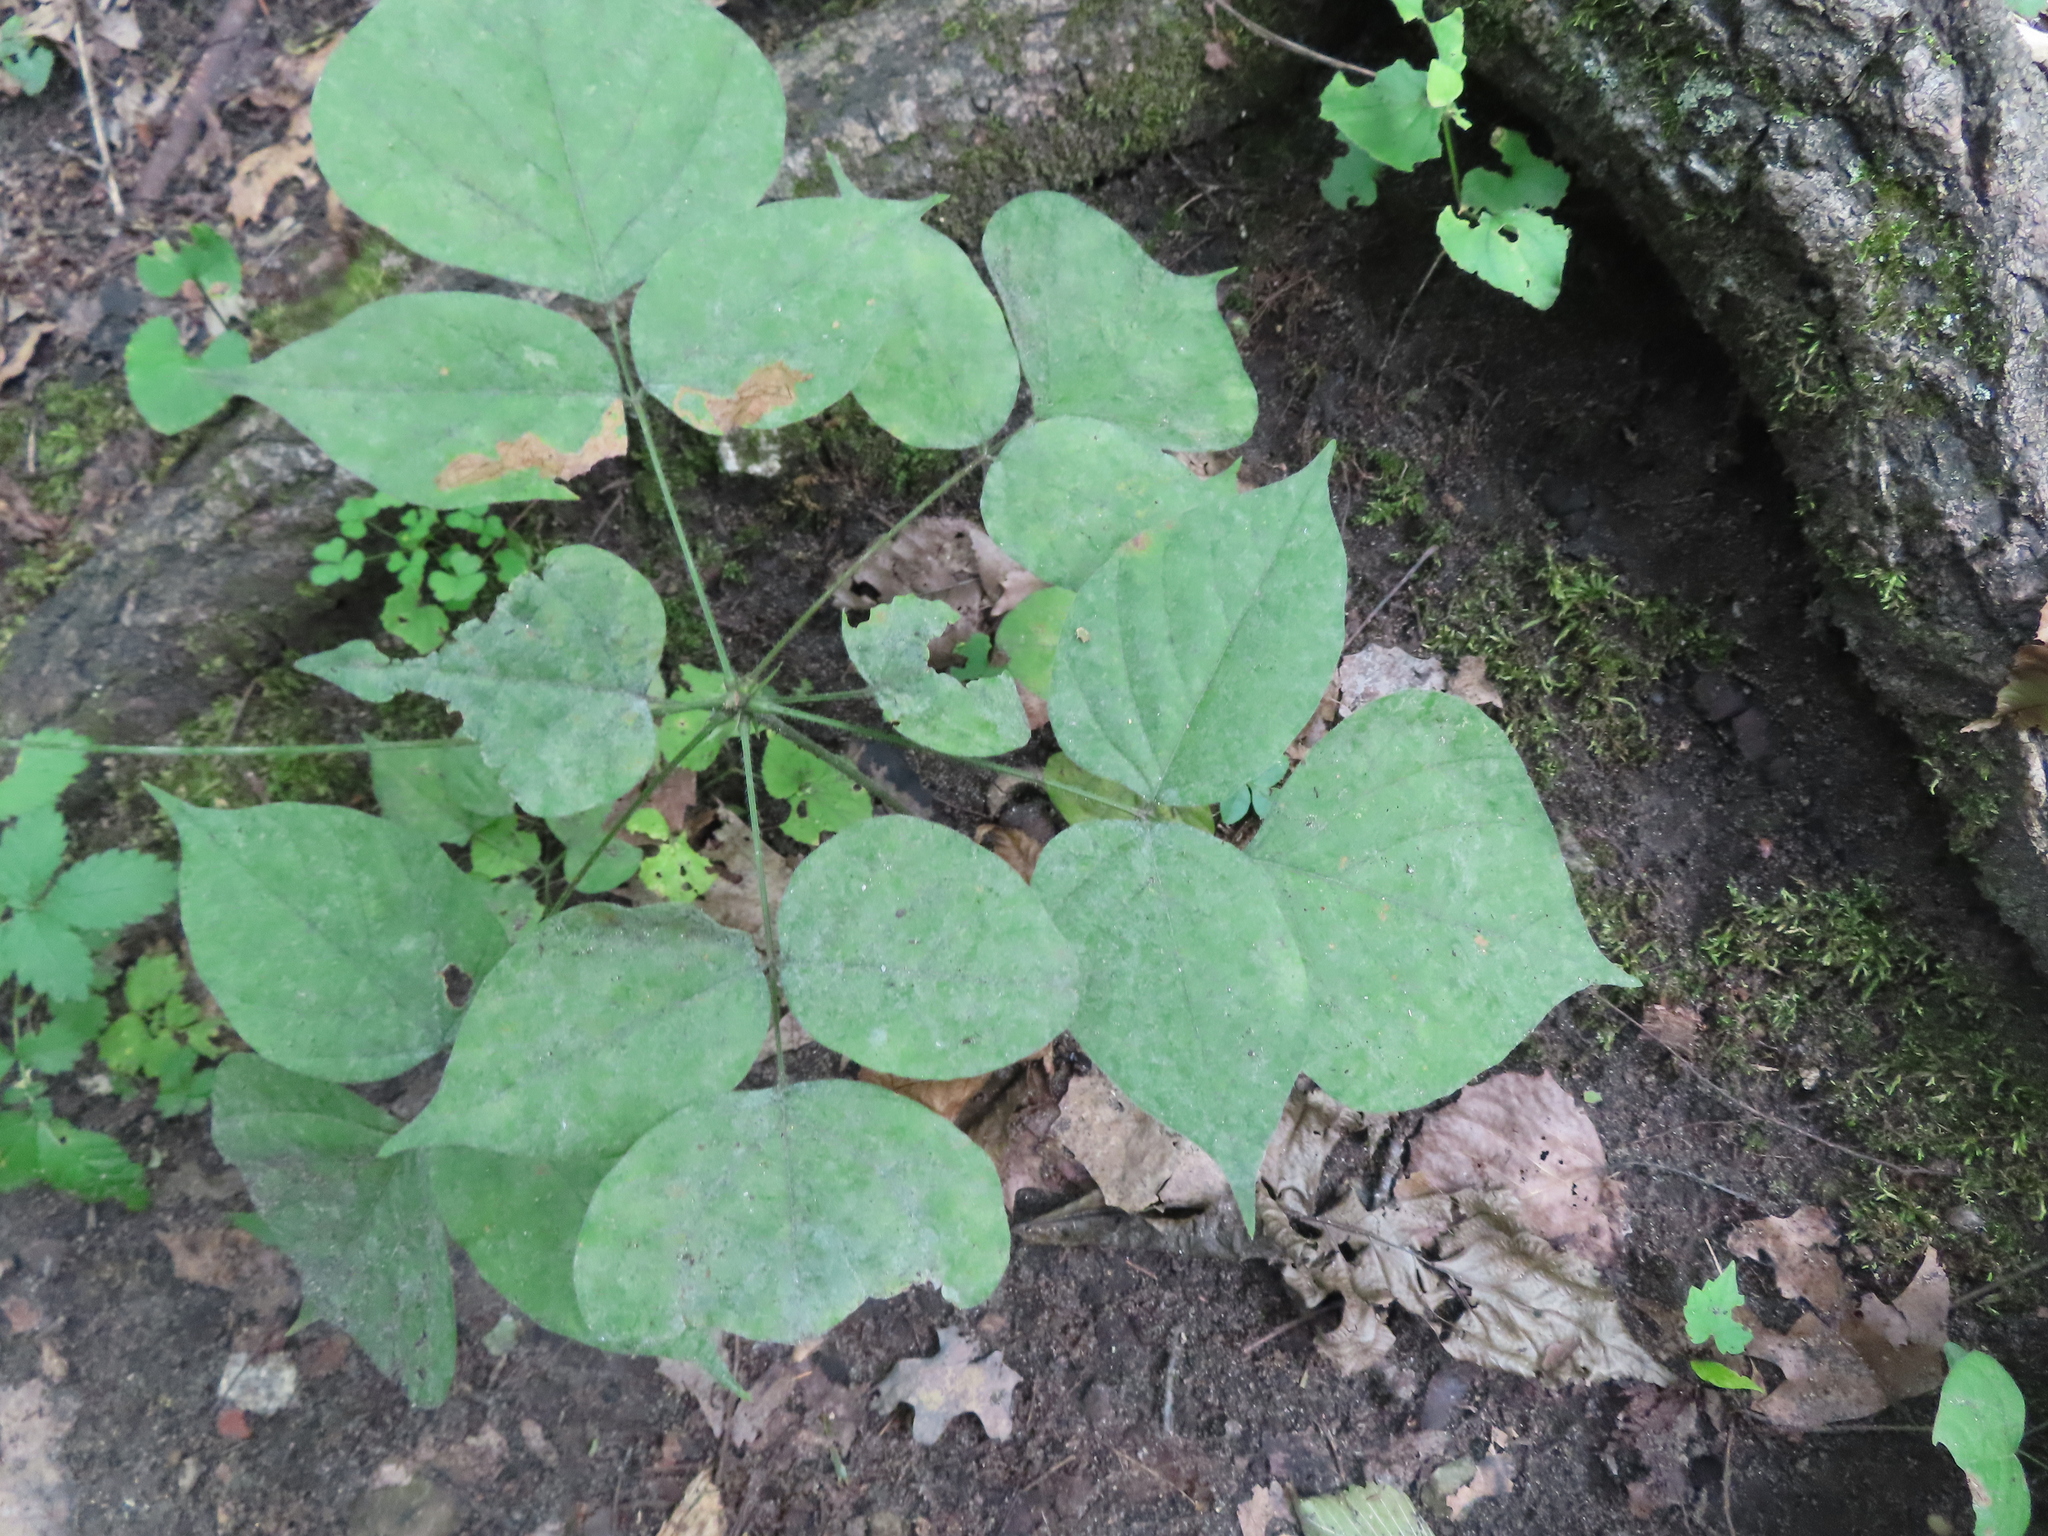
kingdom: Plantae
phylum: Tracheophyta
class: Magnoliopsida
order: Fabales
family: Fabaceae
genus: Hylodesmum
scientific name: Hylodesmum glutinosum
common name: Clustered-leaved tick-trefoil
